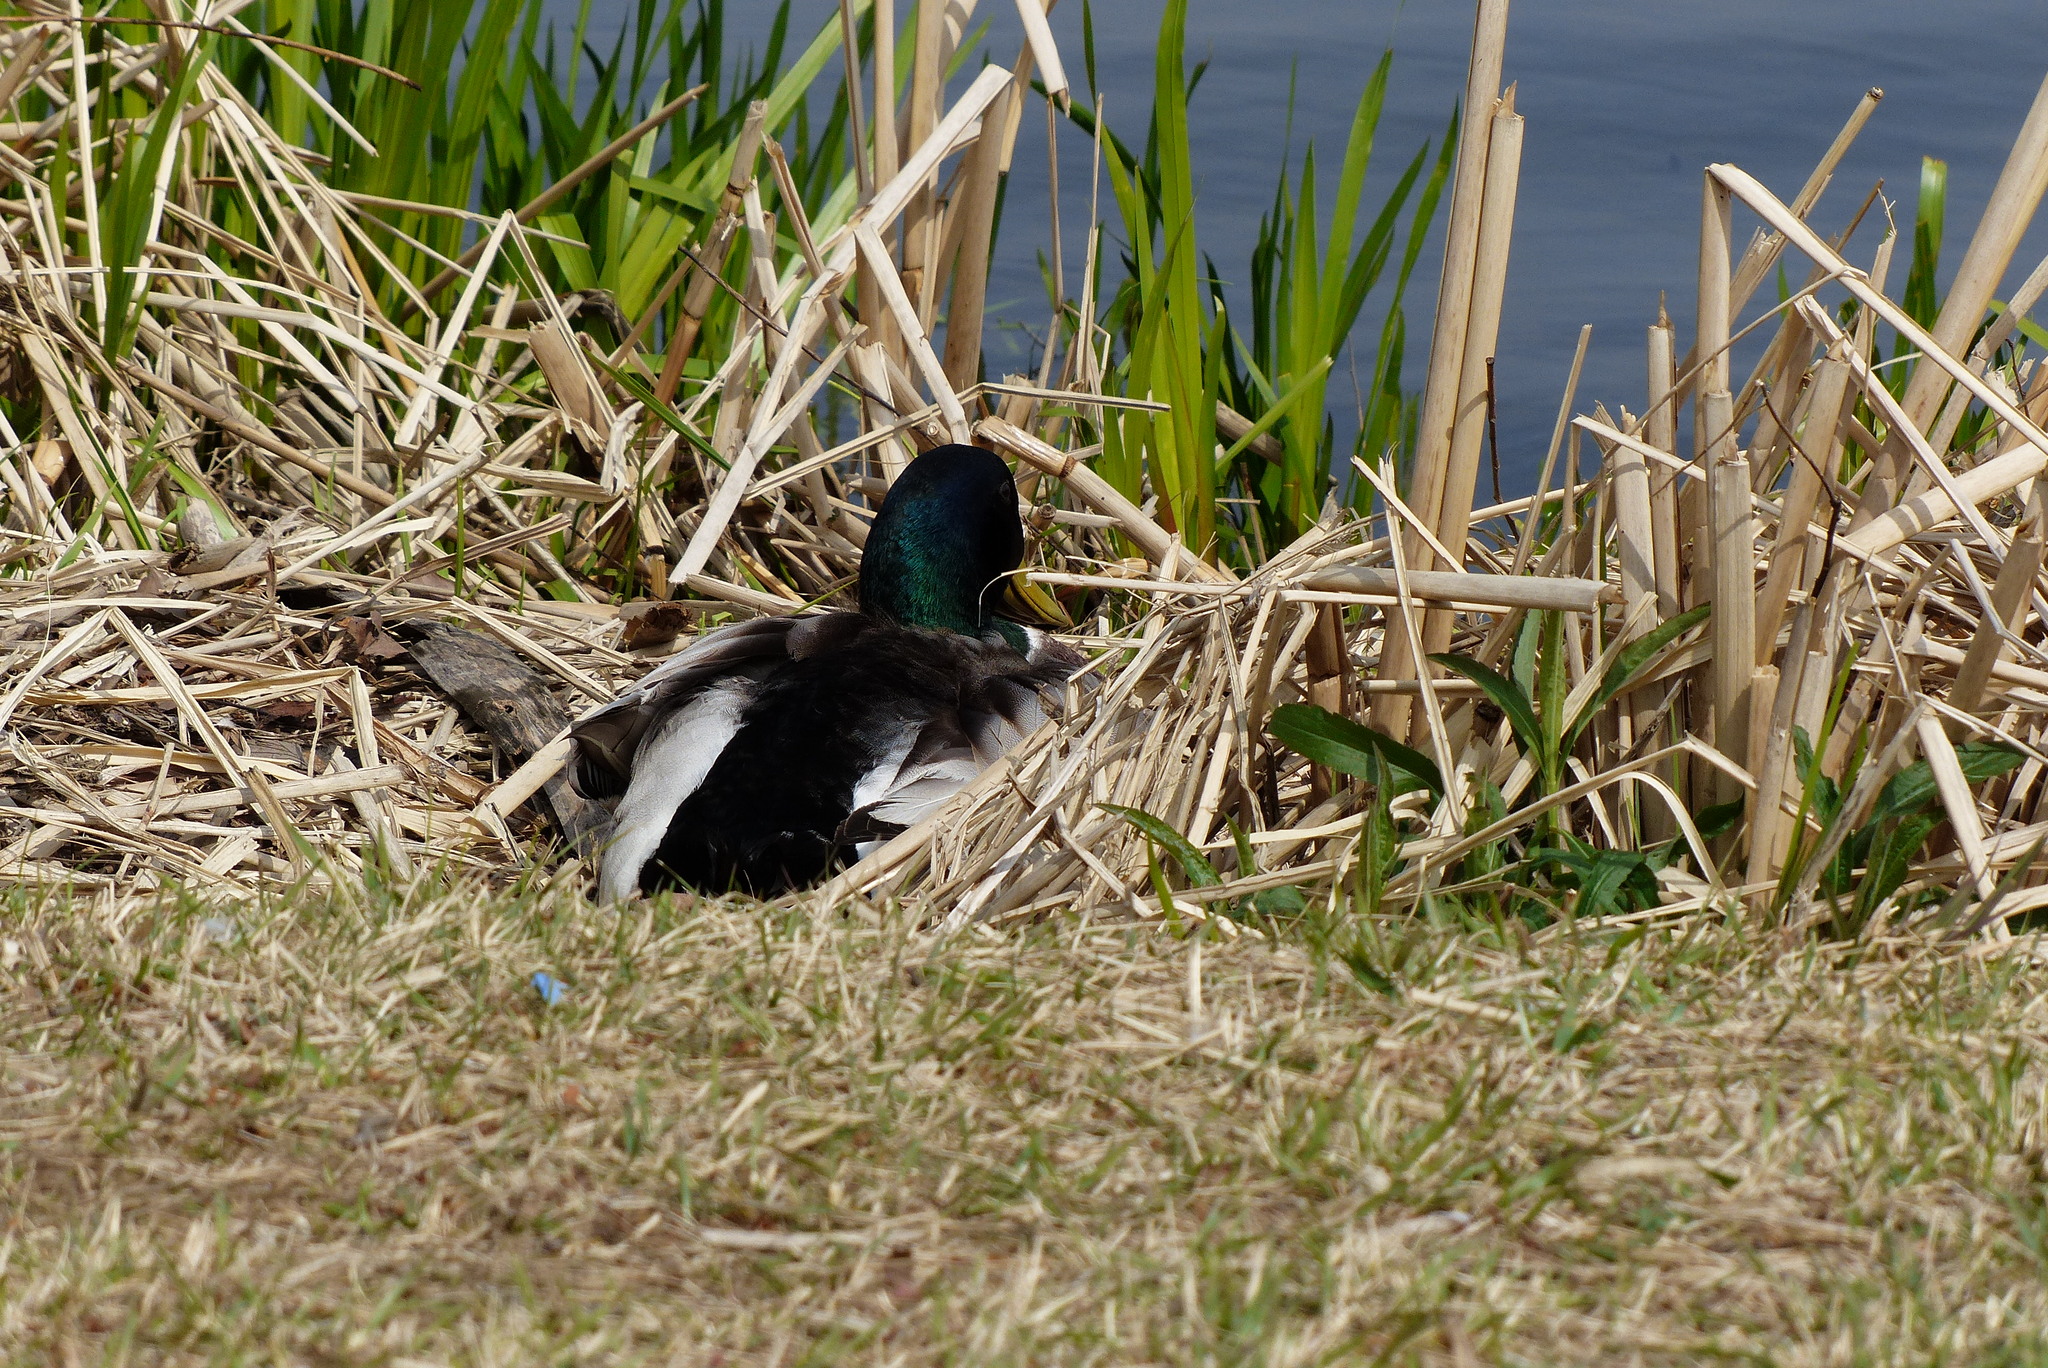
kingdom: Animalia
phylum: Chordata
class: Aves
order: Anseriformes
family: Anatidae
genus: Anas
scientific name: Anas platyrhynchos
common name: Mallard
